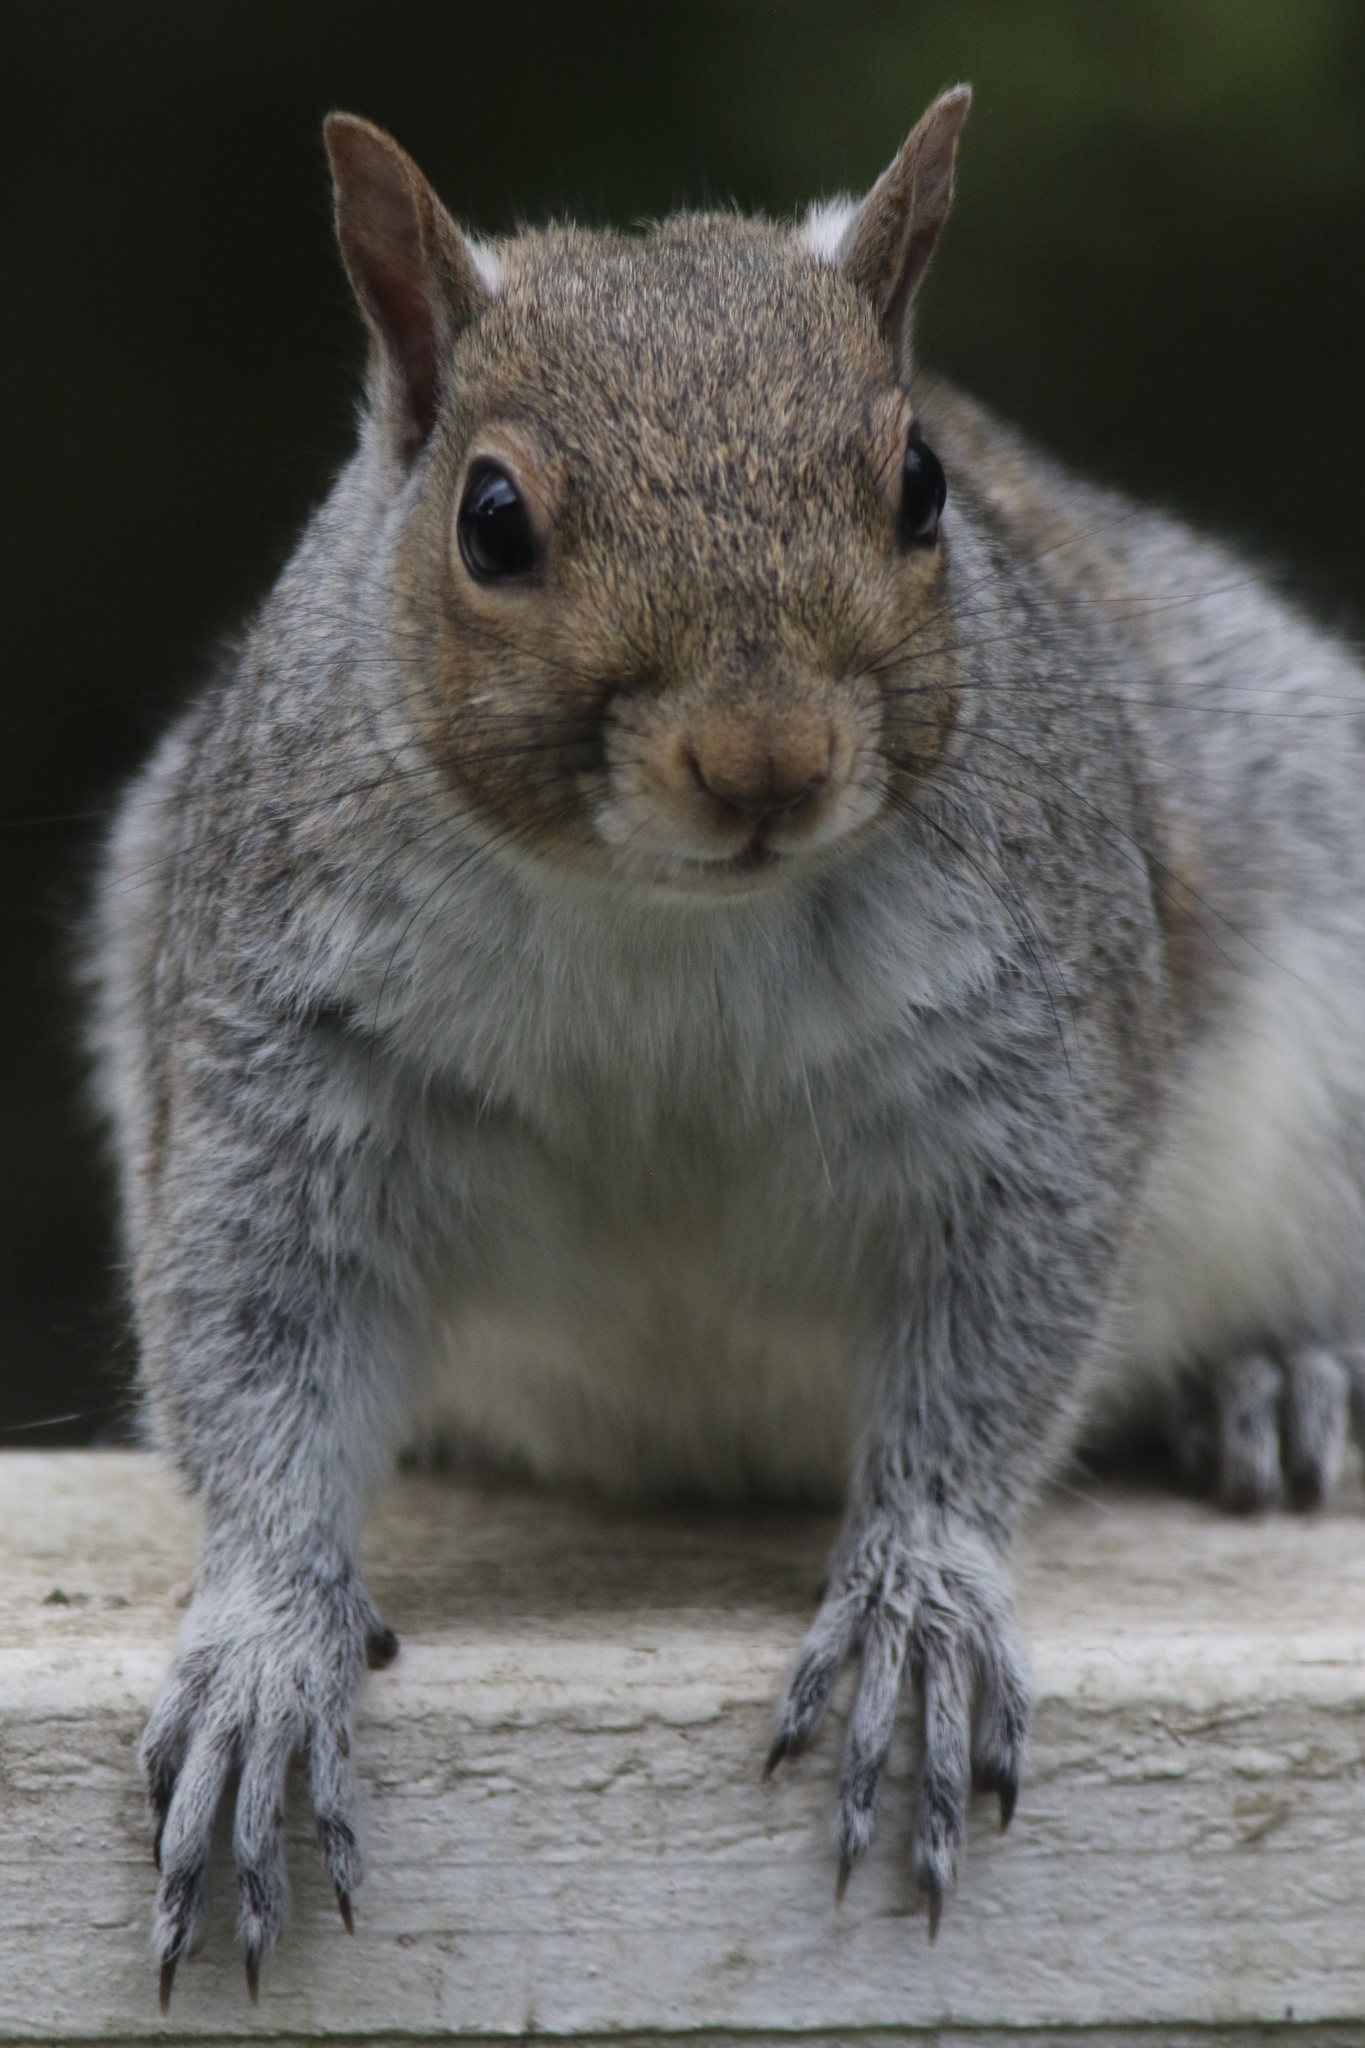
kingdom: Animalia
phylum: Chordata
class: Mammalia
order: Rodentia
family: Sciuridae
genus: Sciurus
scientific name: Sciurus carolinensis
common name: Eastern gray squirrel
